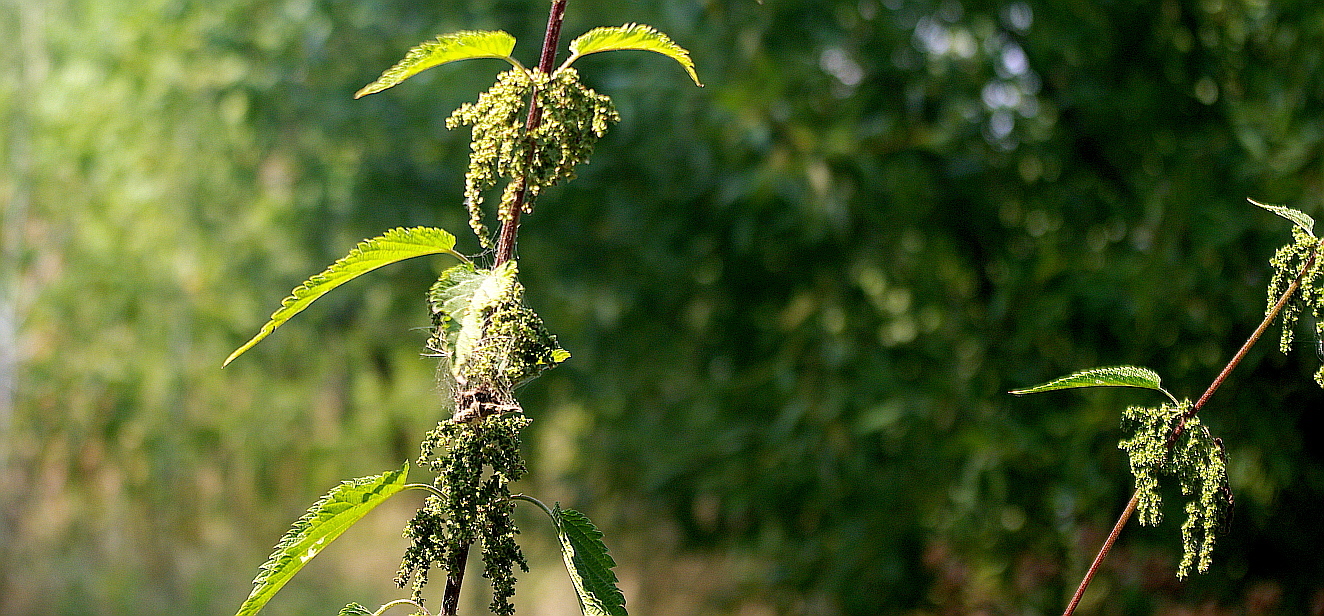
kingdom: Plantae
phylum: Tracheophyta
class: Magnoliopsida
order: Rosales
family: Urticaceae
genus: Urtica
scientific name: Urtica dioica
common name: Common nettle
